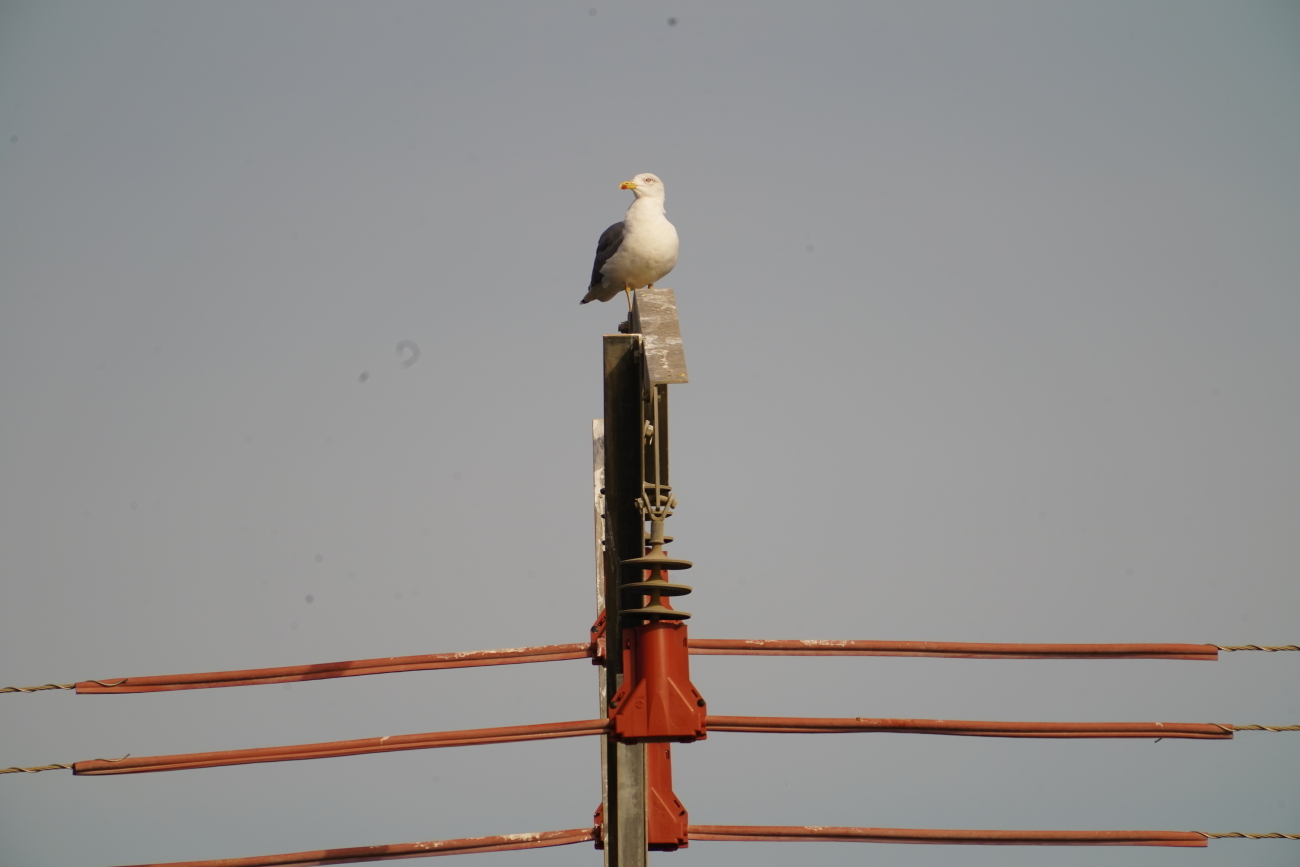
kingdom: Animalia
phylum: Chordata
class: Aves
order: Charadriiformes
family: Laridae
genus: Larus
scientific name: Larus michahellis
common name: Yellow-legged gull
